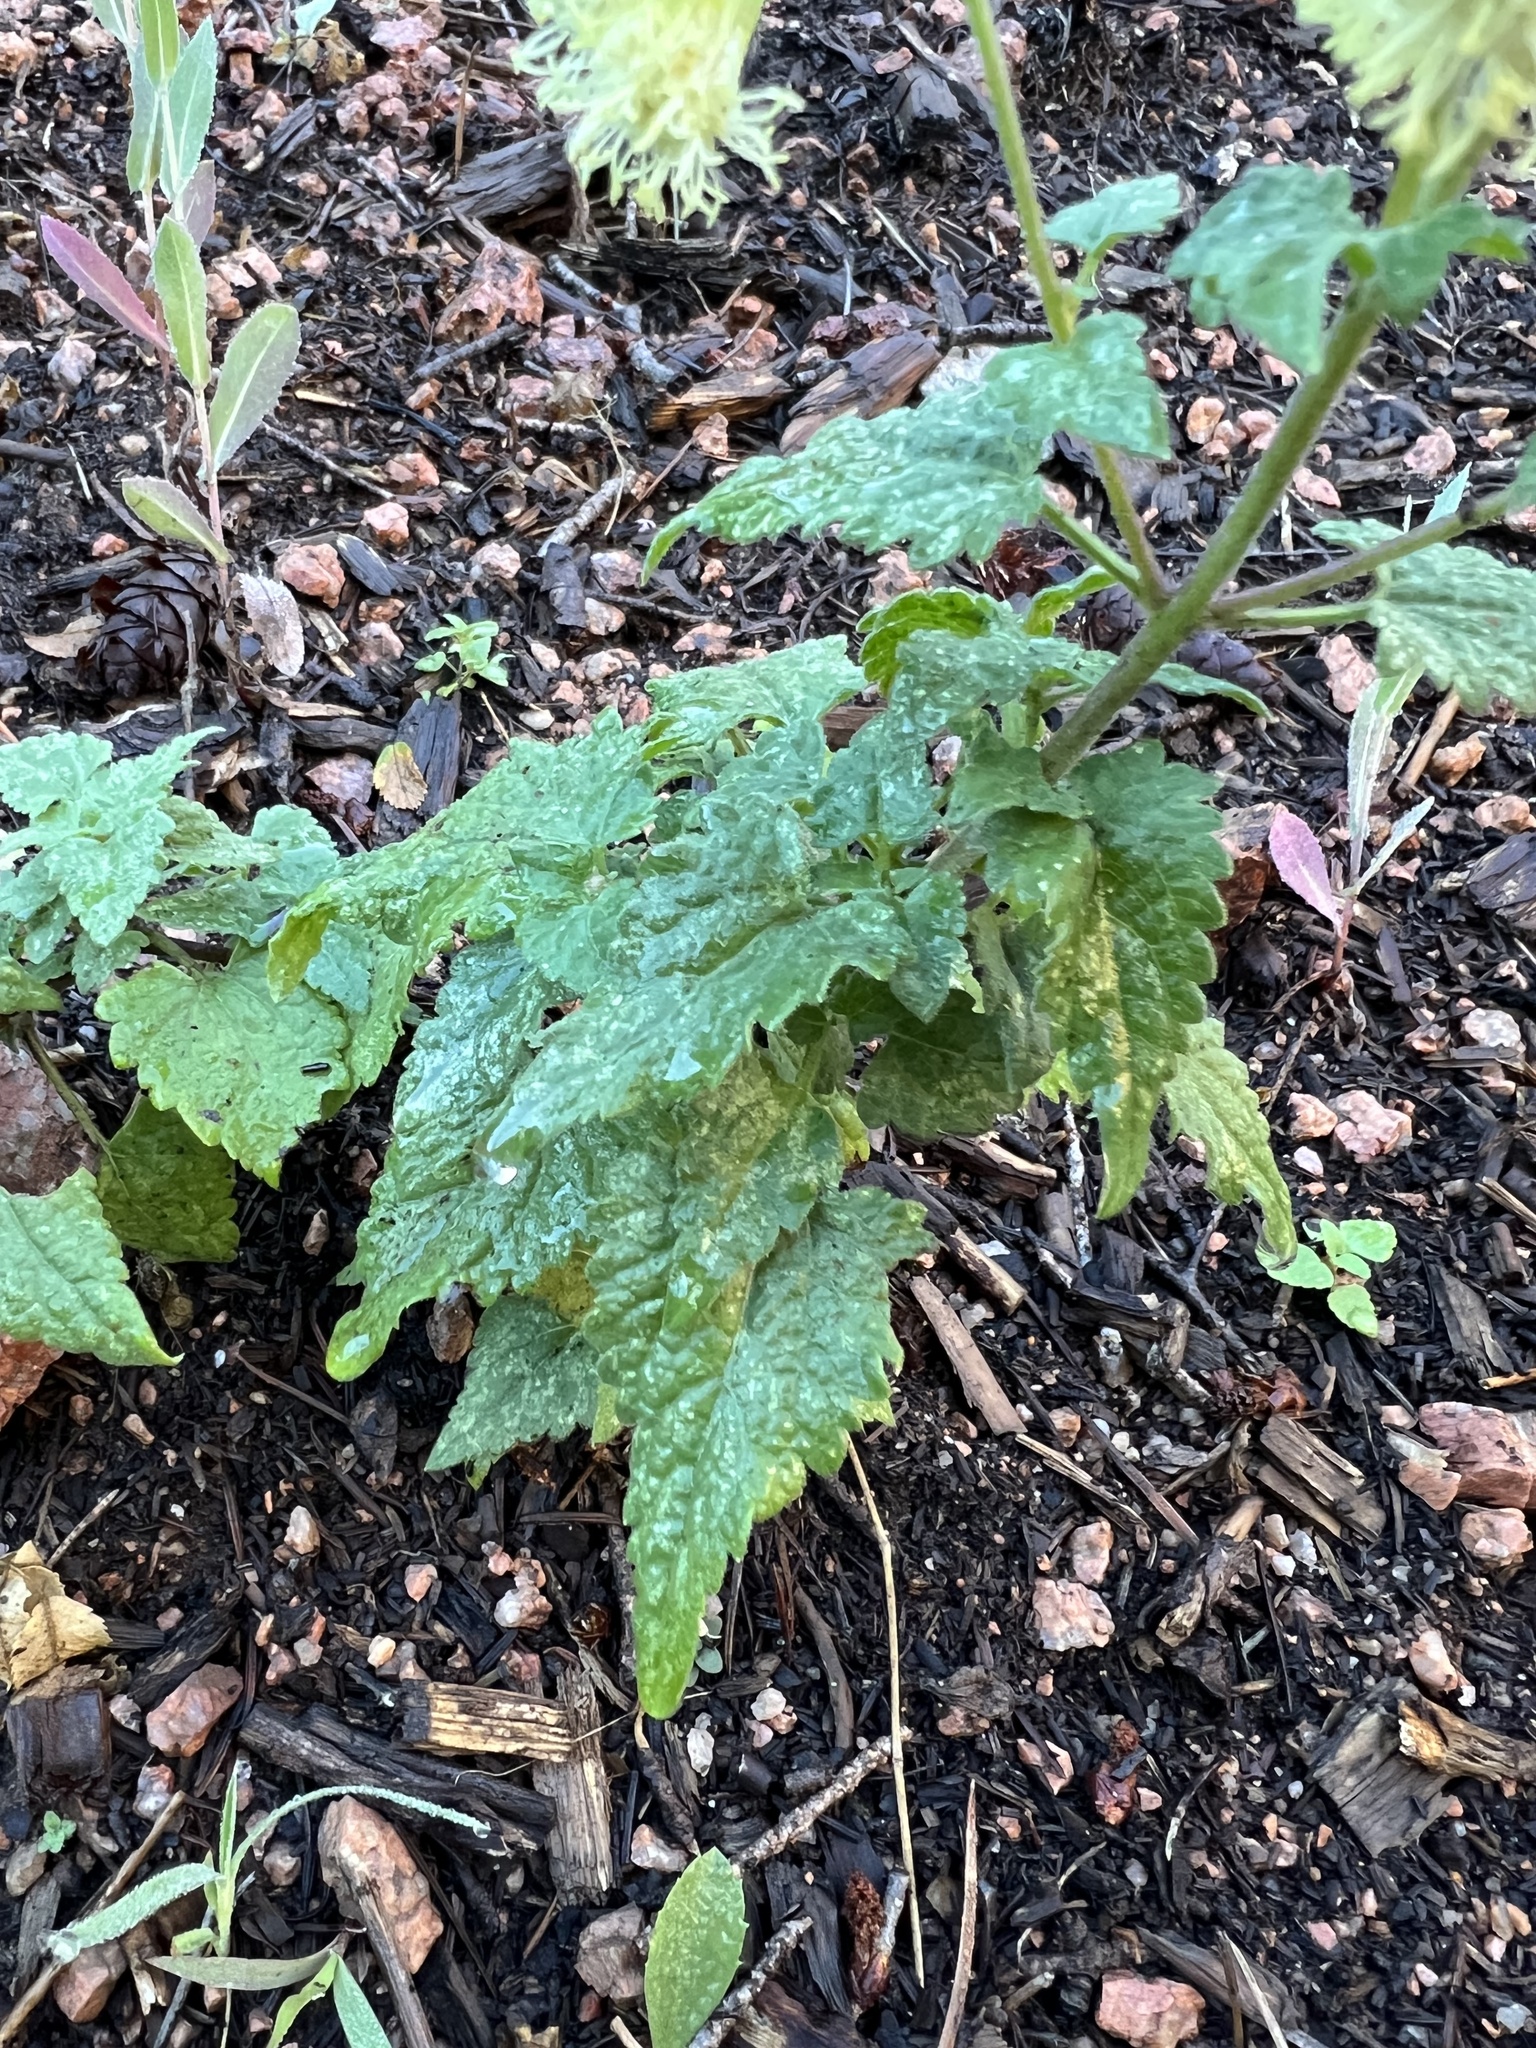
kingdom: Plantae
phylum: Tracheophyta
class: Magnoliopsida
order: Asterales
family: Asteraceae
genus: Brickellia
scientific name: Brickellia grandiflora
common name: Large-flowered brickellia
